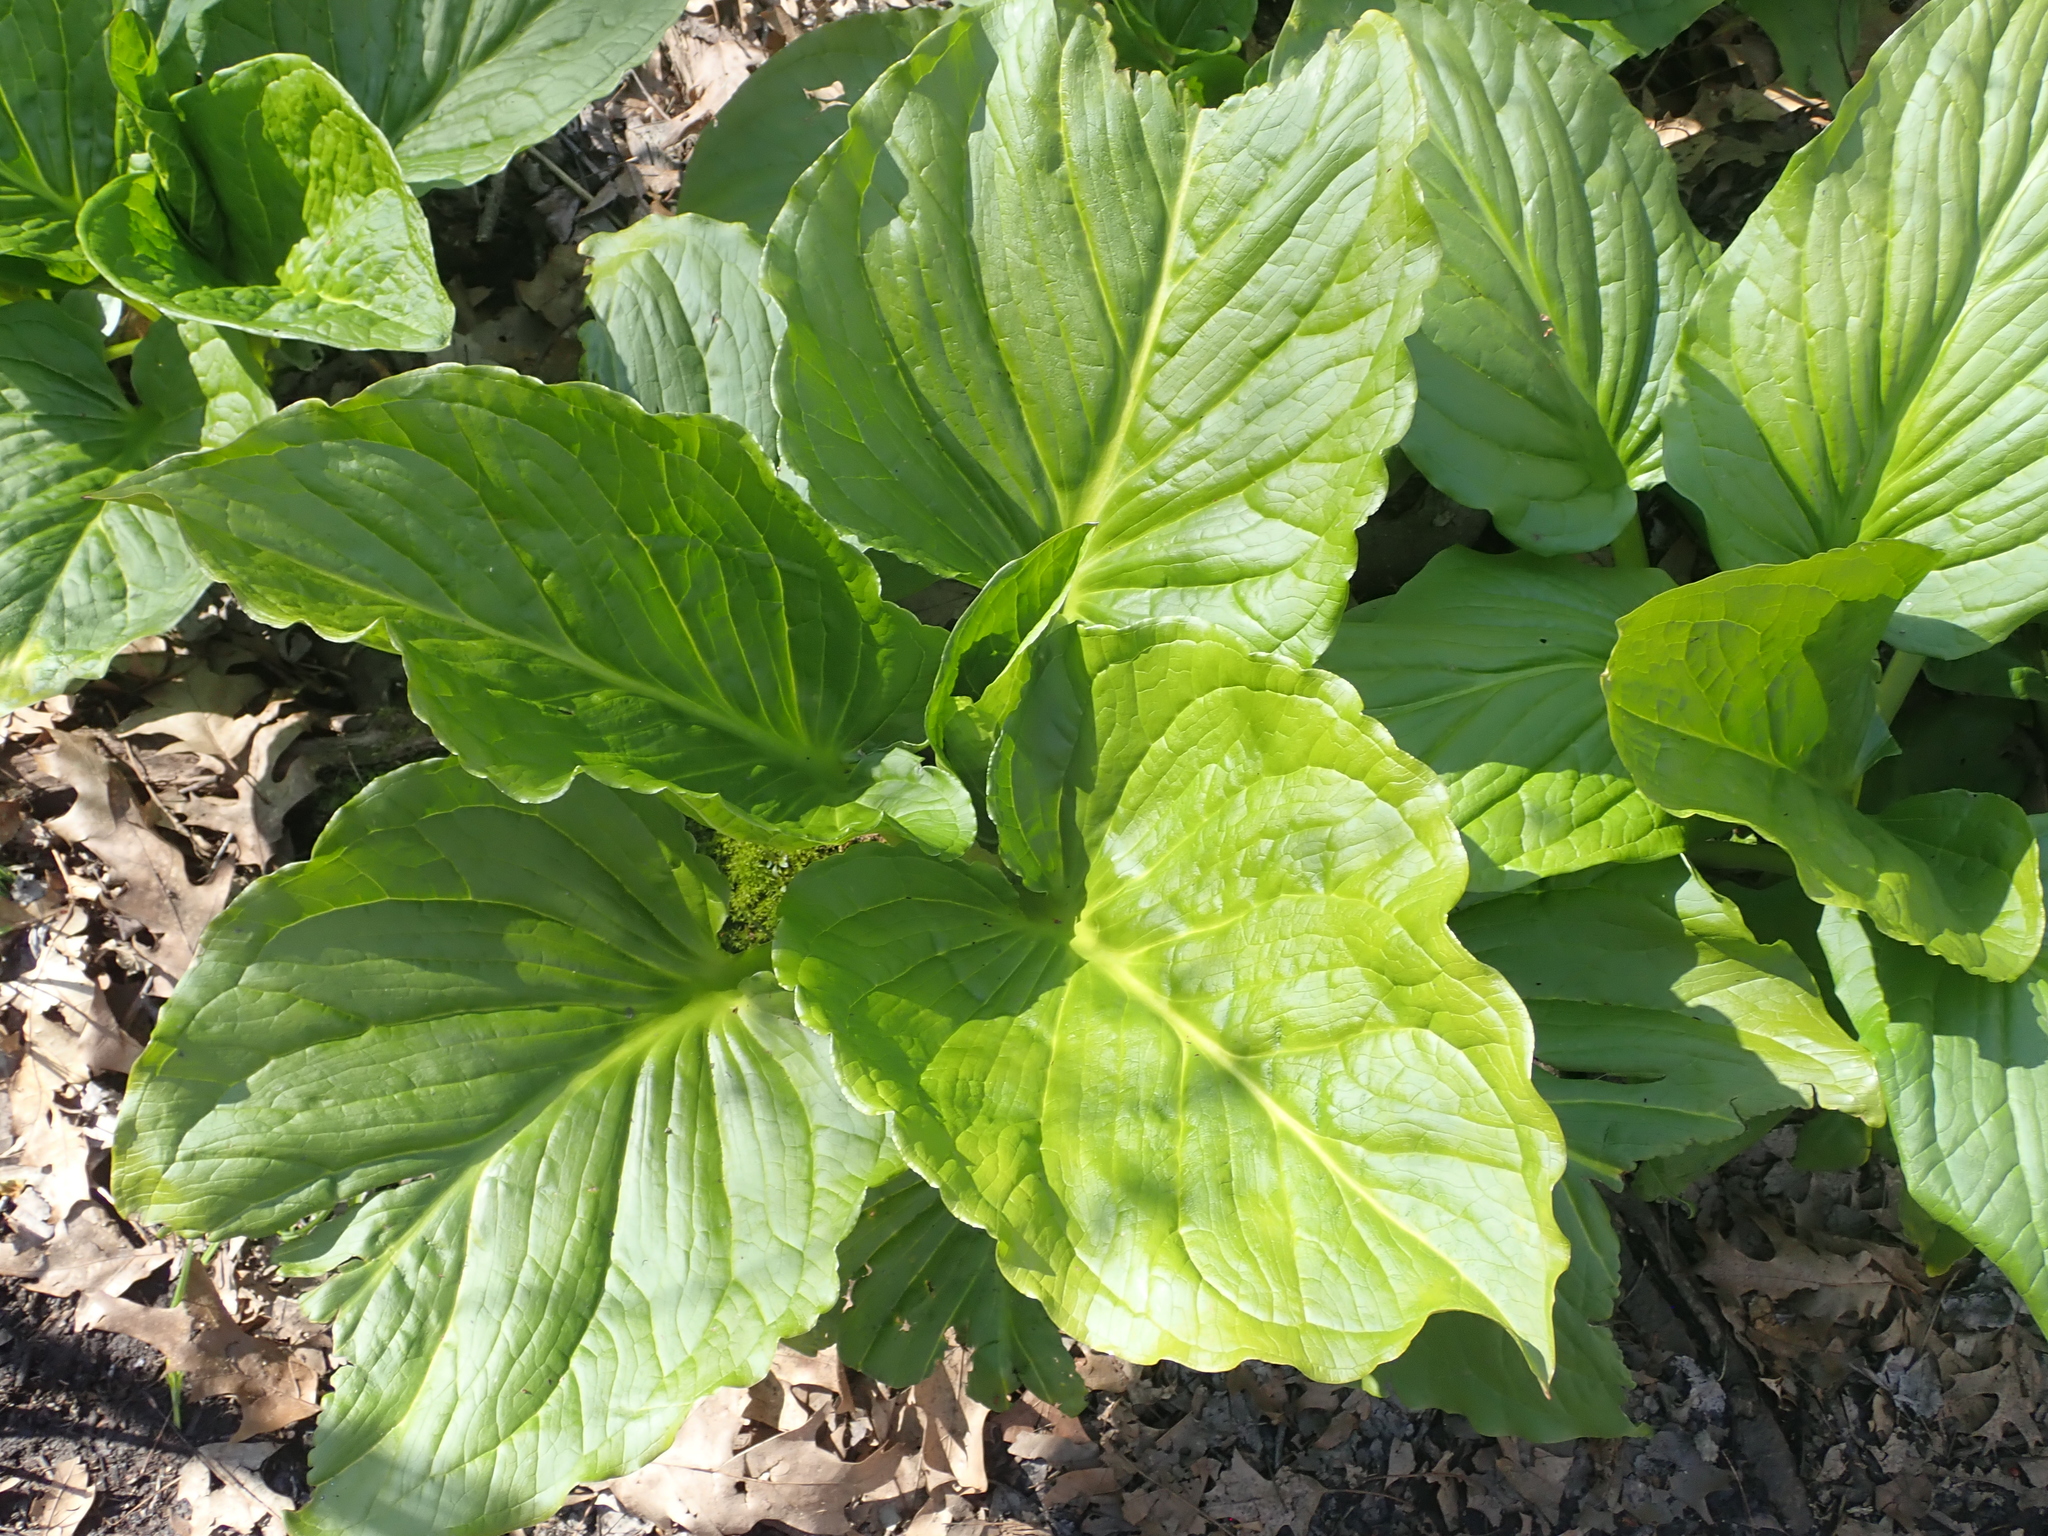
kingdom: Plantae
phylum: Tracheophyta
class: Liliopsida
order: Alismatales
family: Araceae
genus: Symplocarpus
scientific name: Symplocarpus foetidus
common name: Eastern skunk cabbage
